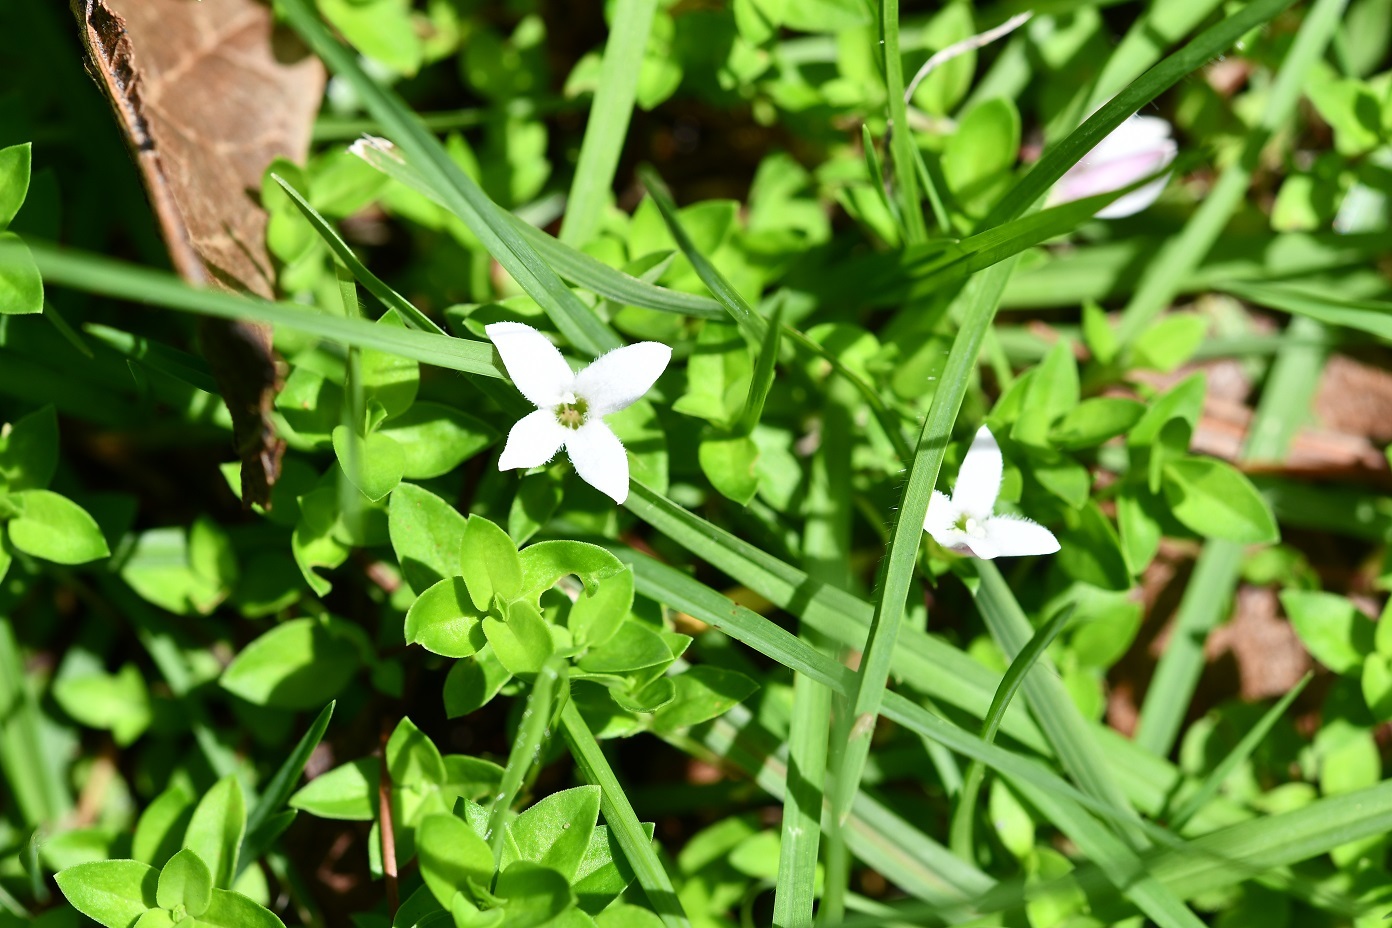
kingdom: Plantae
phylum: Tracheophyta
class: Magnoliopsida
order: Gentianales
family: Rubiaceae
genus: Arcytophyllum
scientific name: Arcytophyllum serpyllaceum
